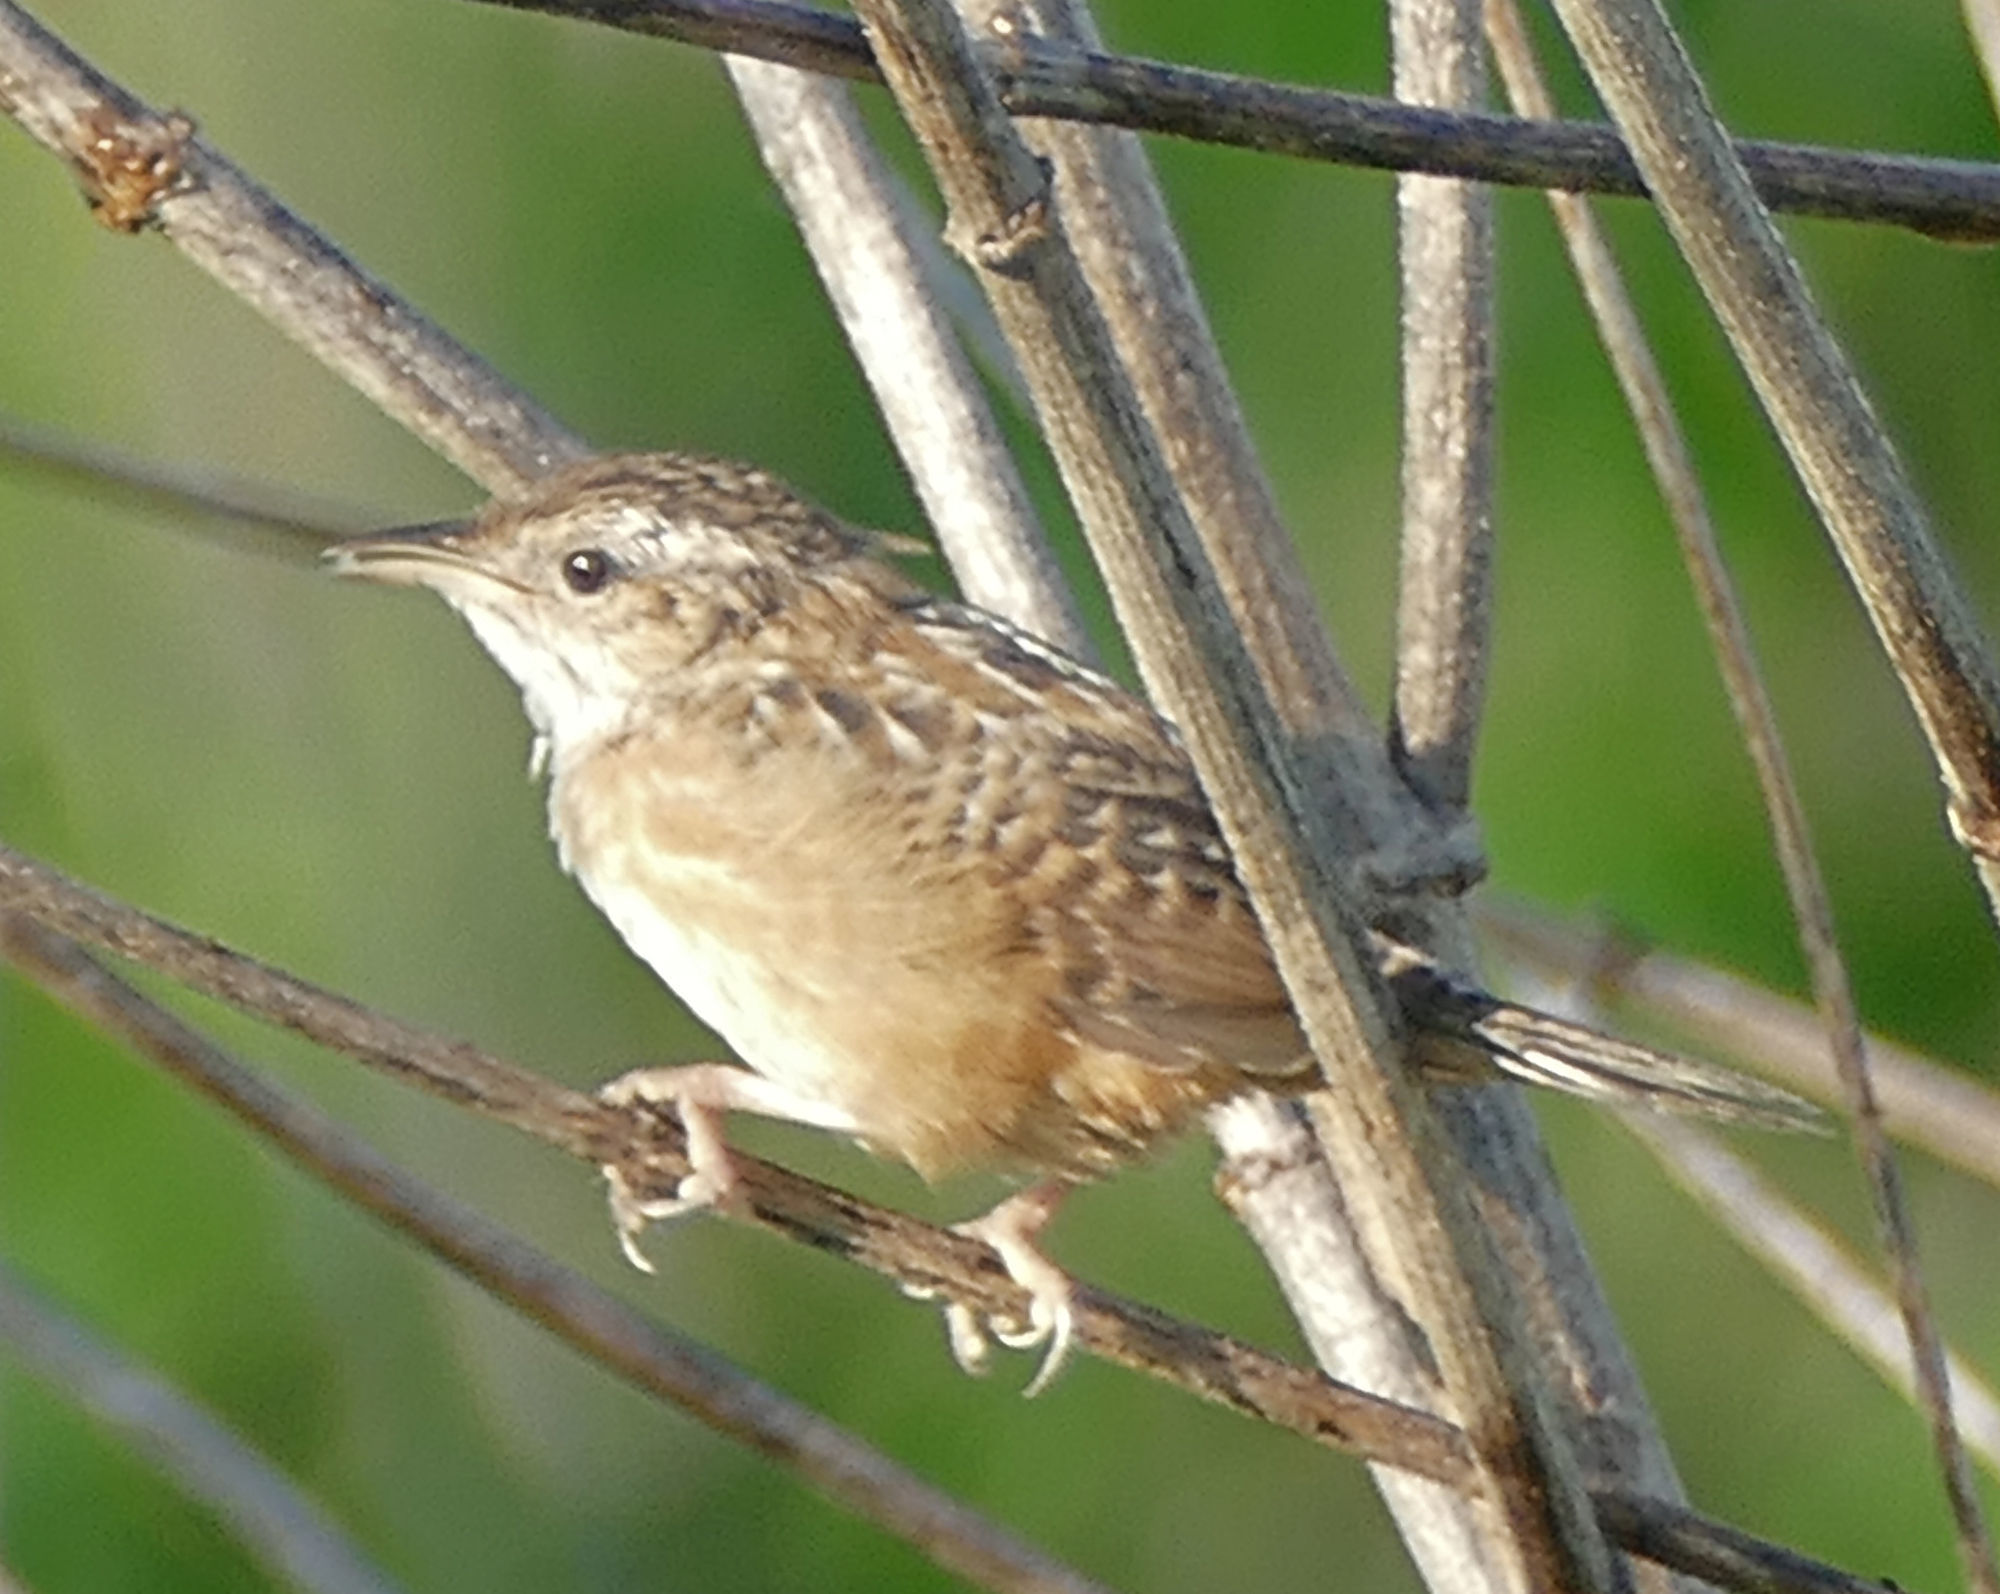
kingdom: Animalia
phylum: Chordata
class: Aves
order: Passeriformes
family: Troglodytidae
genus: Cistothorus
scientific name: Cistothorus platensis
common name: Sedge wren
